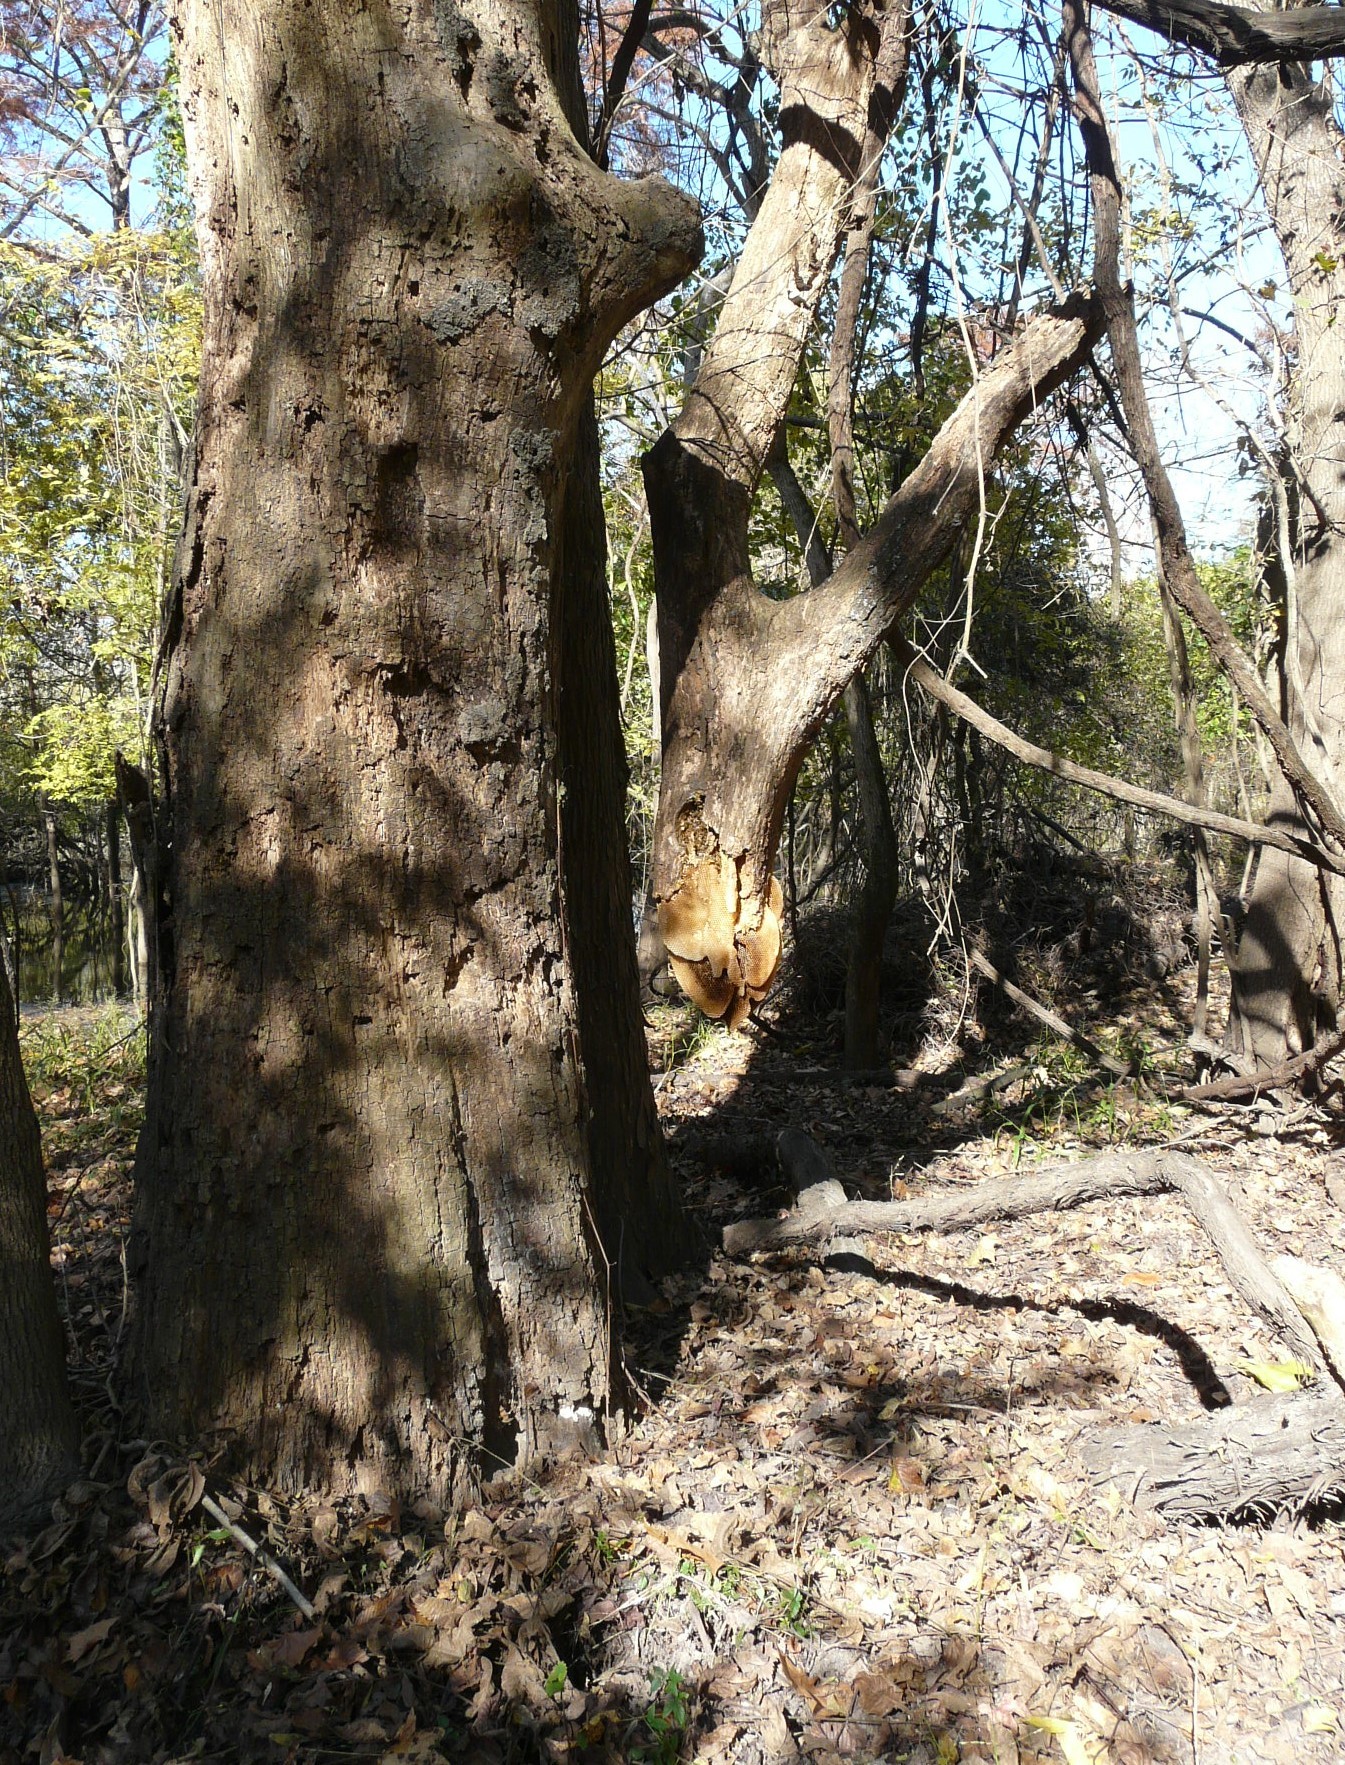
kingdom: Animalia
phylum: Arthropoda
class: Insecta
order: Hymenoptera
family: Apidae
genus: Apis
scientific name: Apis mellifera
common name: Honey bee
